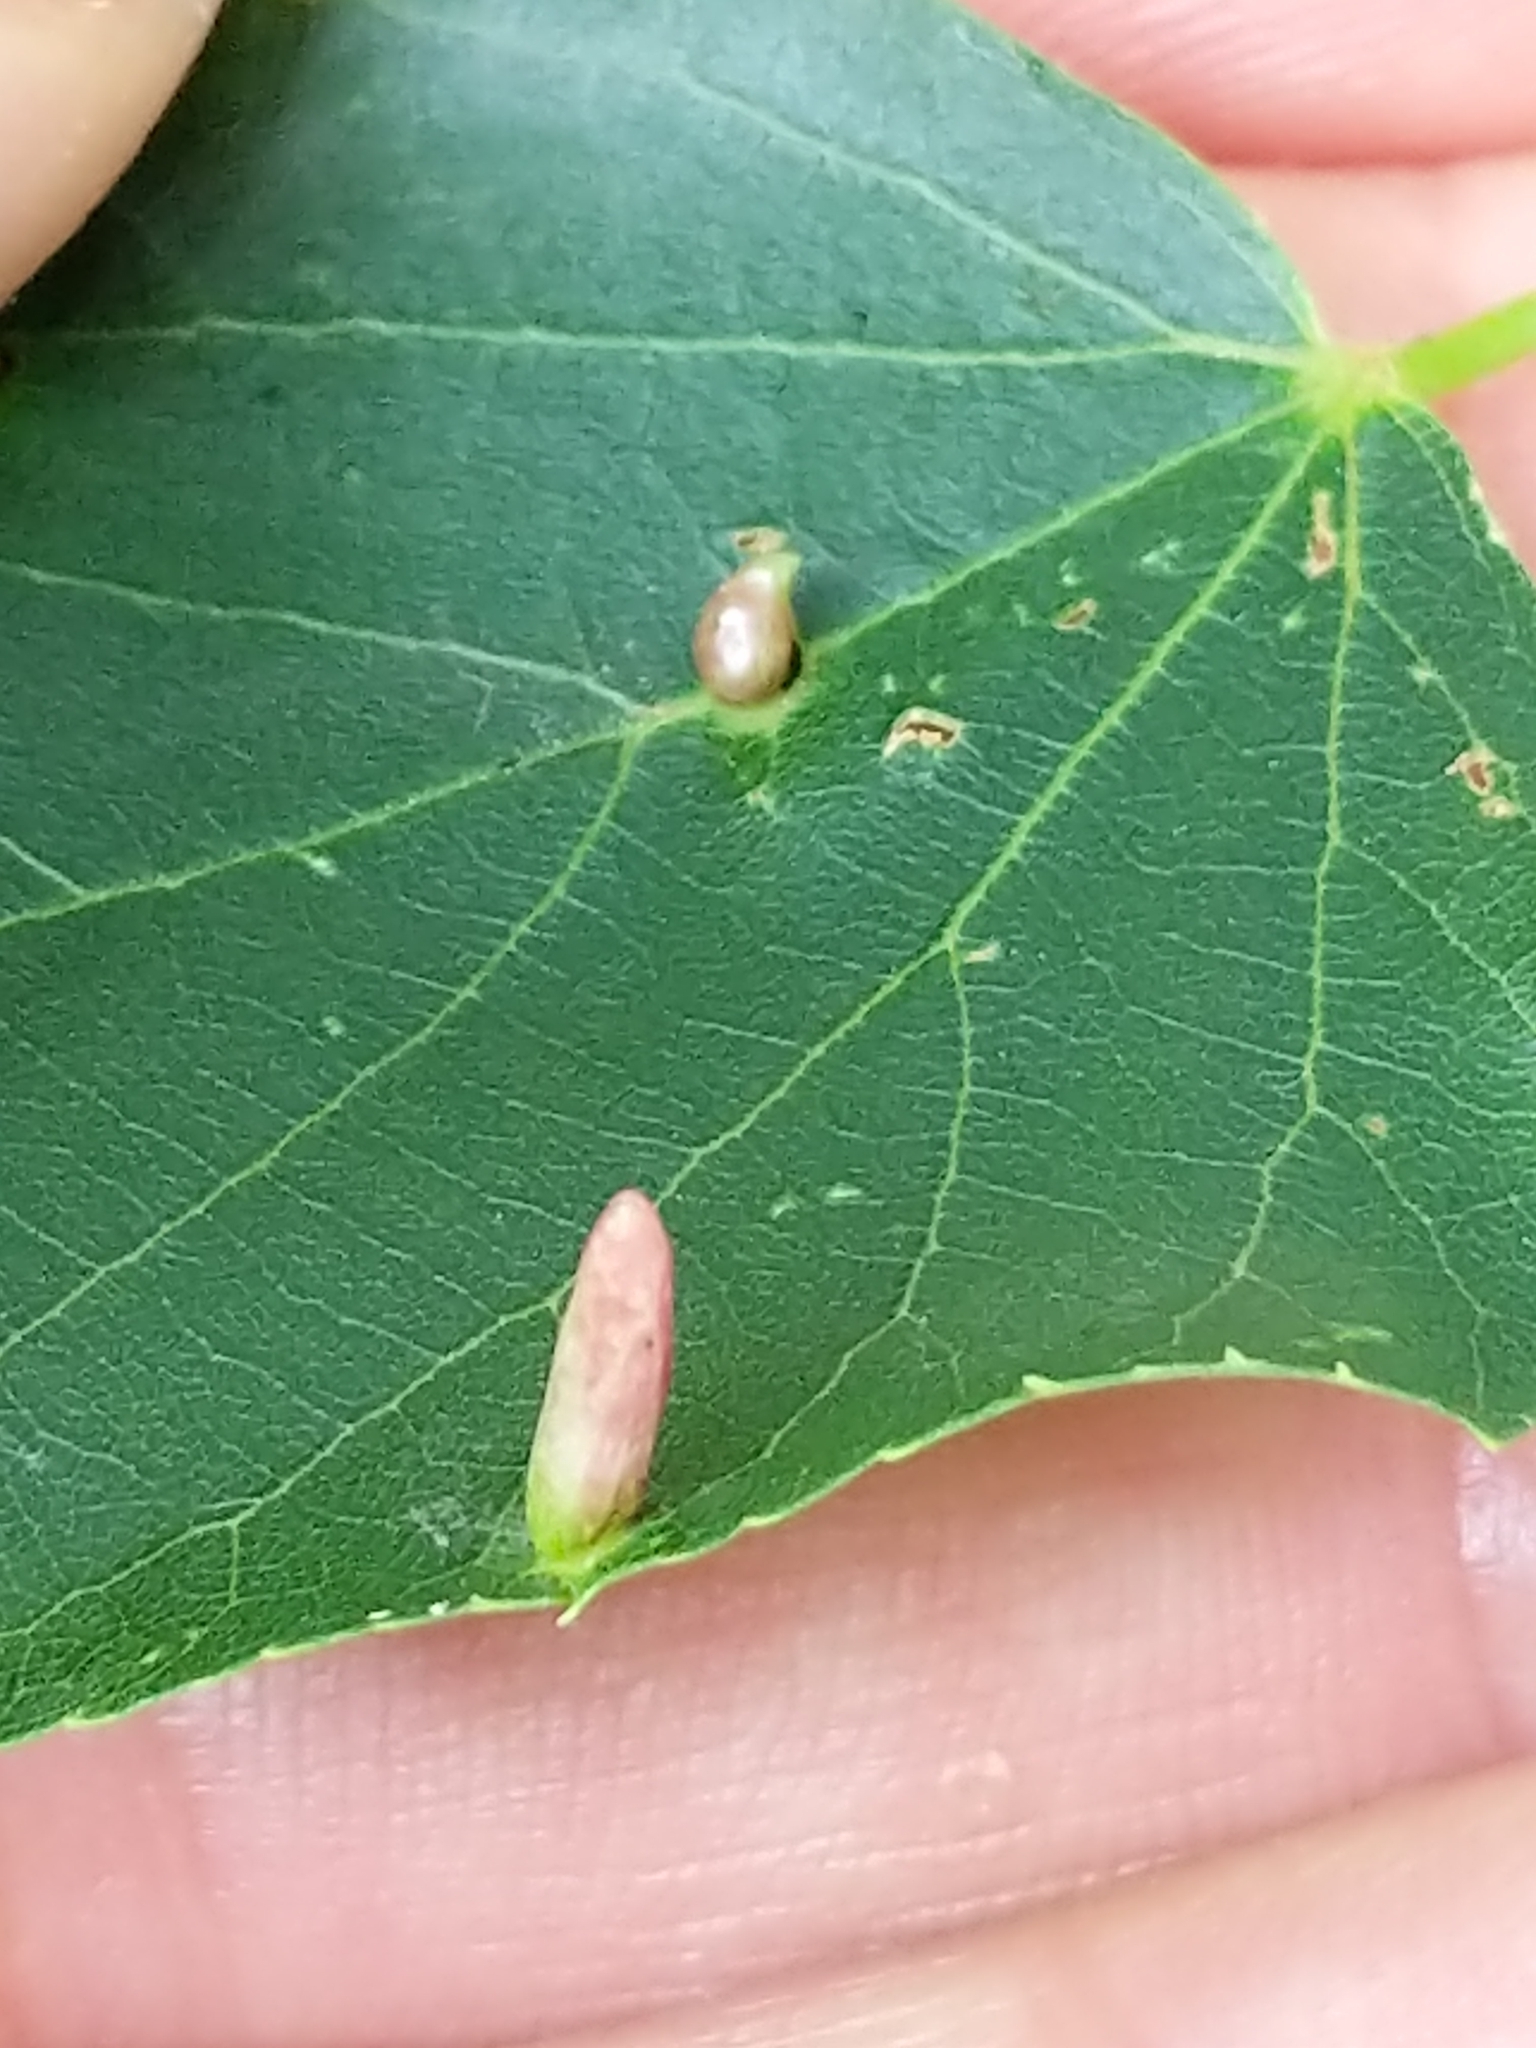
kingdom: Animalia
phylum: Arthropoda
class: Arachnida
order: Trombidiformes
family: Eriophyidae
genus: Eriophyes
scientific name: Eriophyes tiliae
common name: Red nail gall mite
